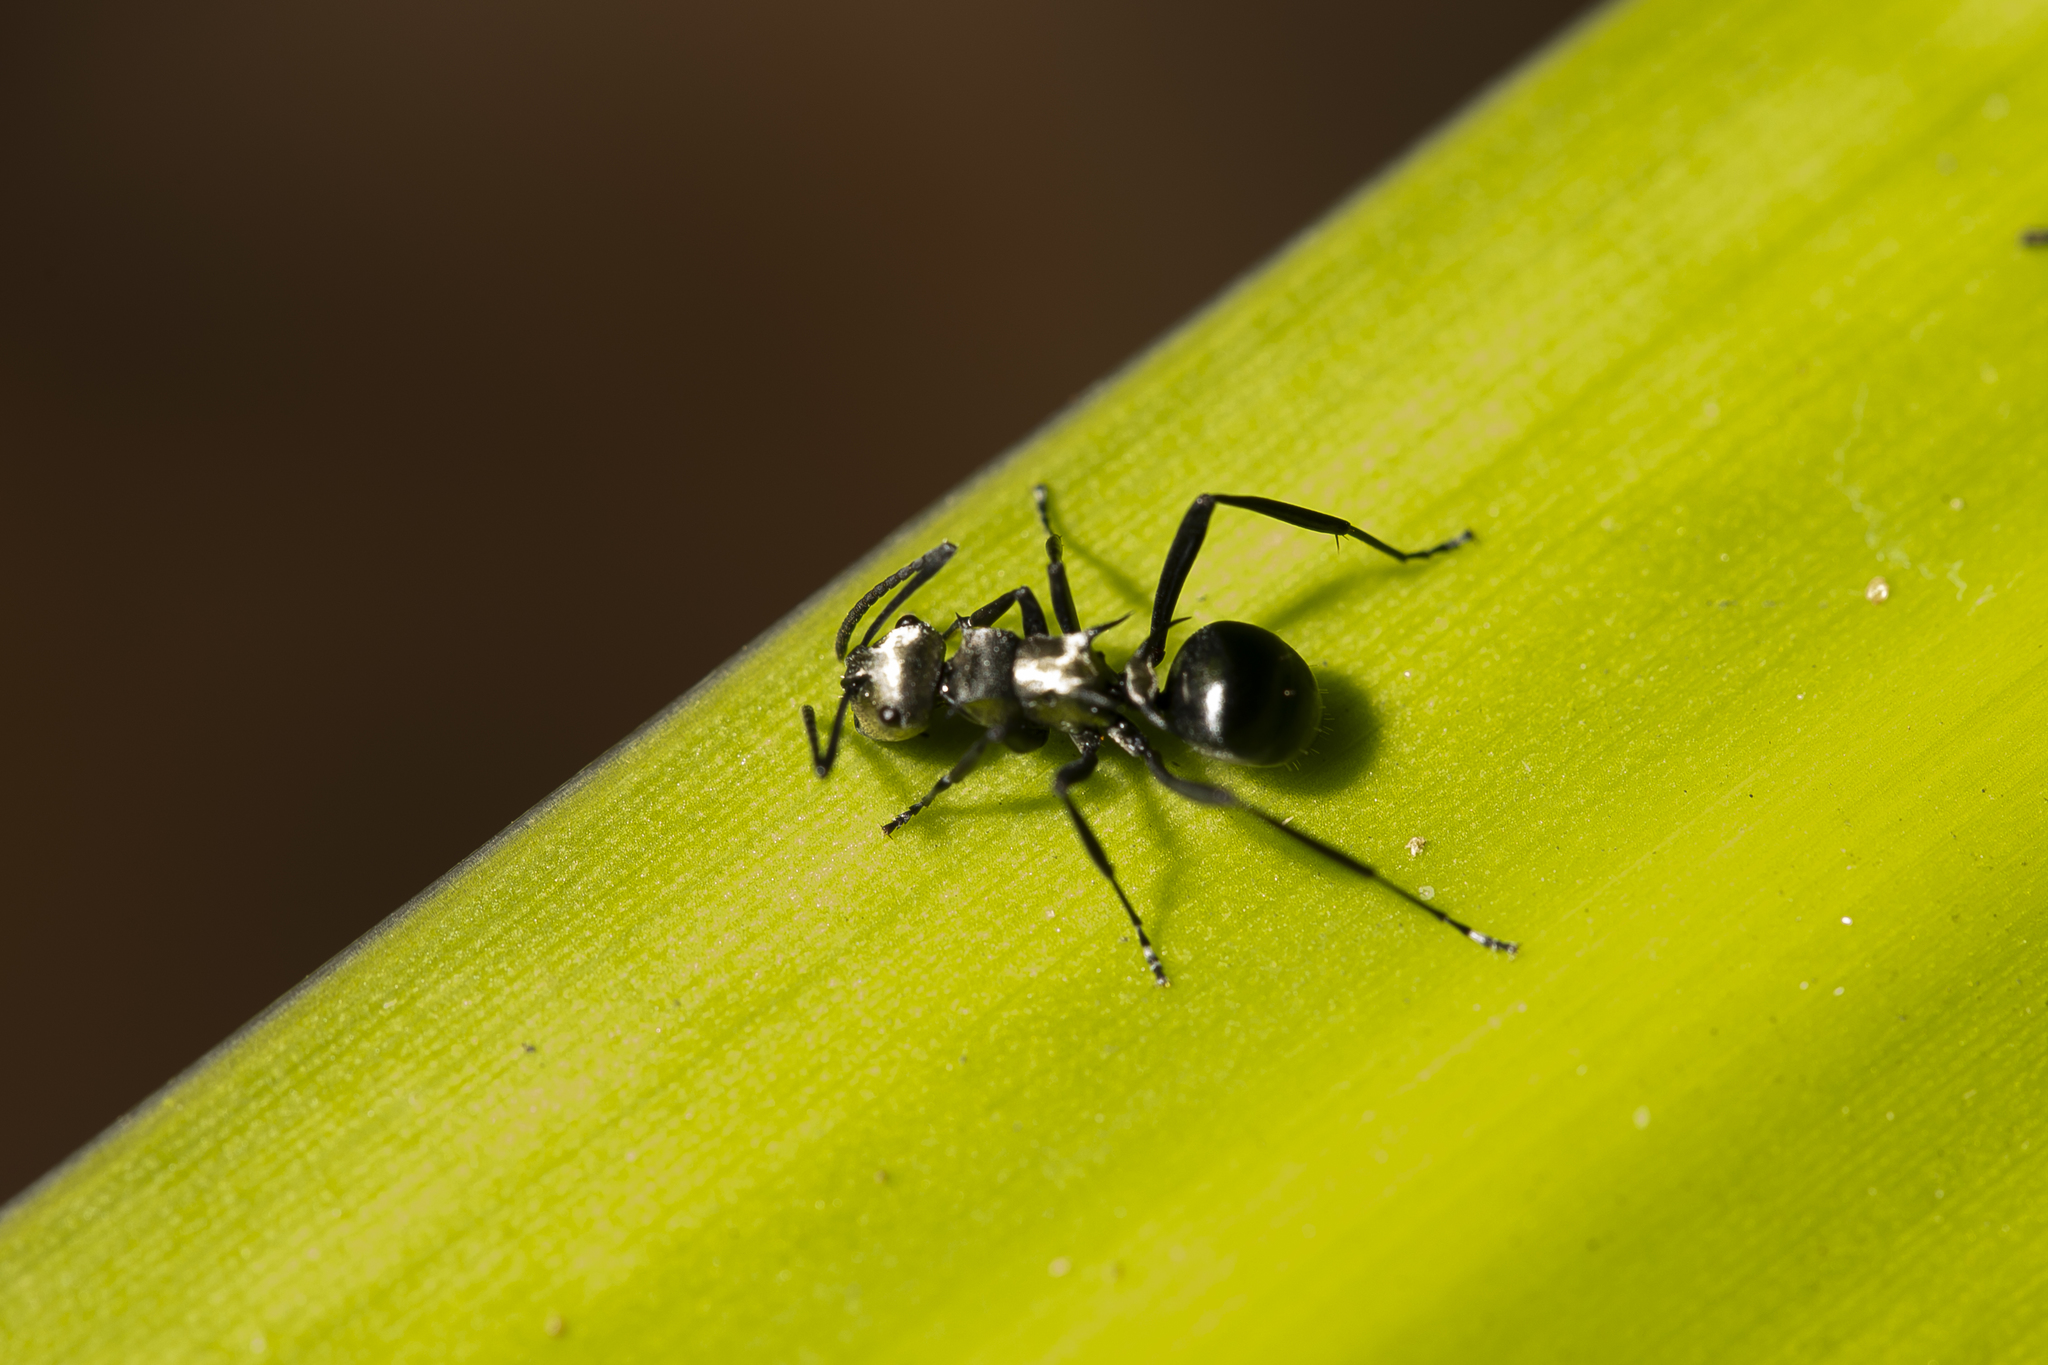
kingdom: Animalia
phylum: Arthropoda
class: Insecta
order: Hymenoptera
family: Formicidae
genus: Polyrhachis
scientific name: Polyrhachis argentosa
